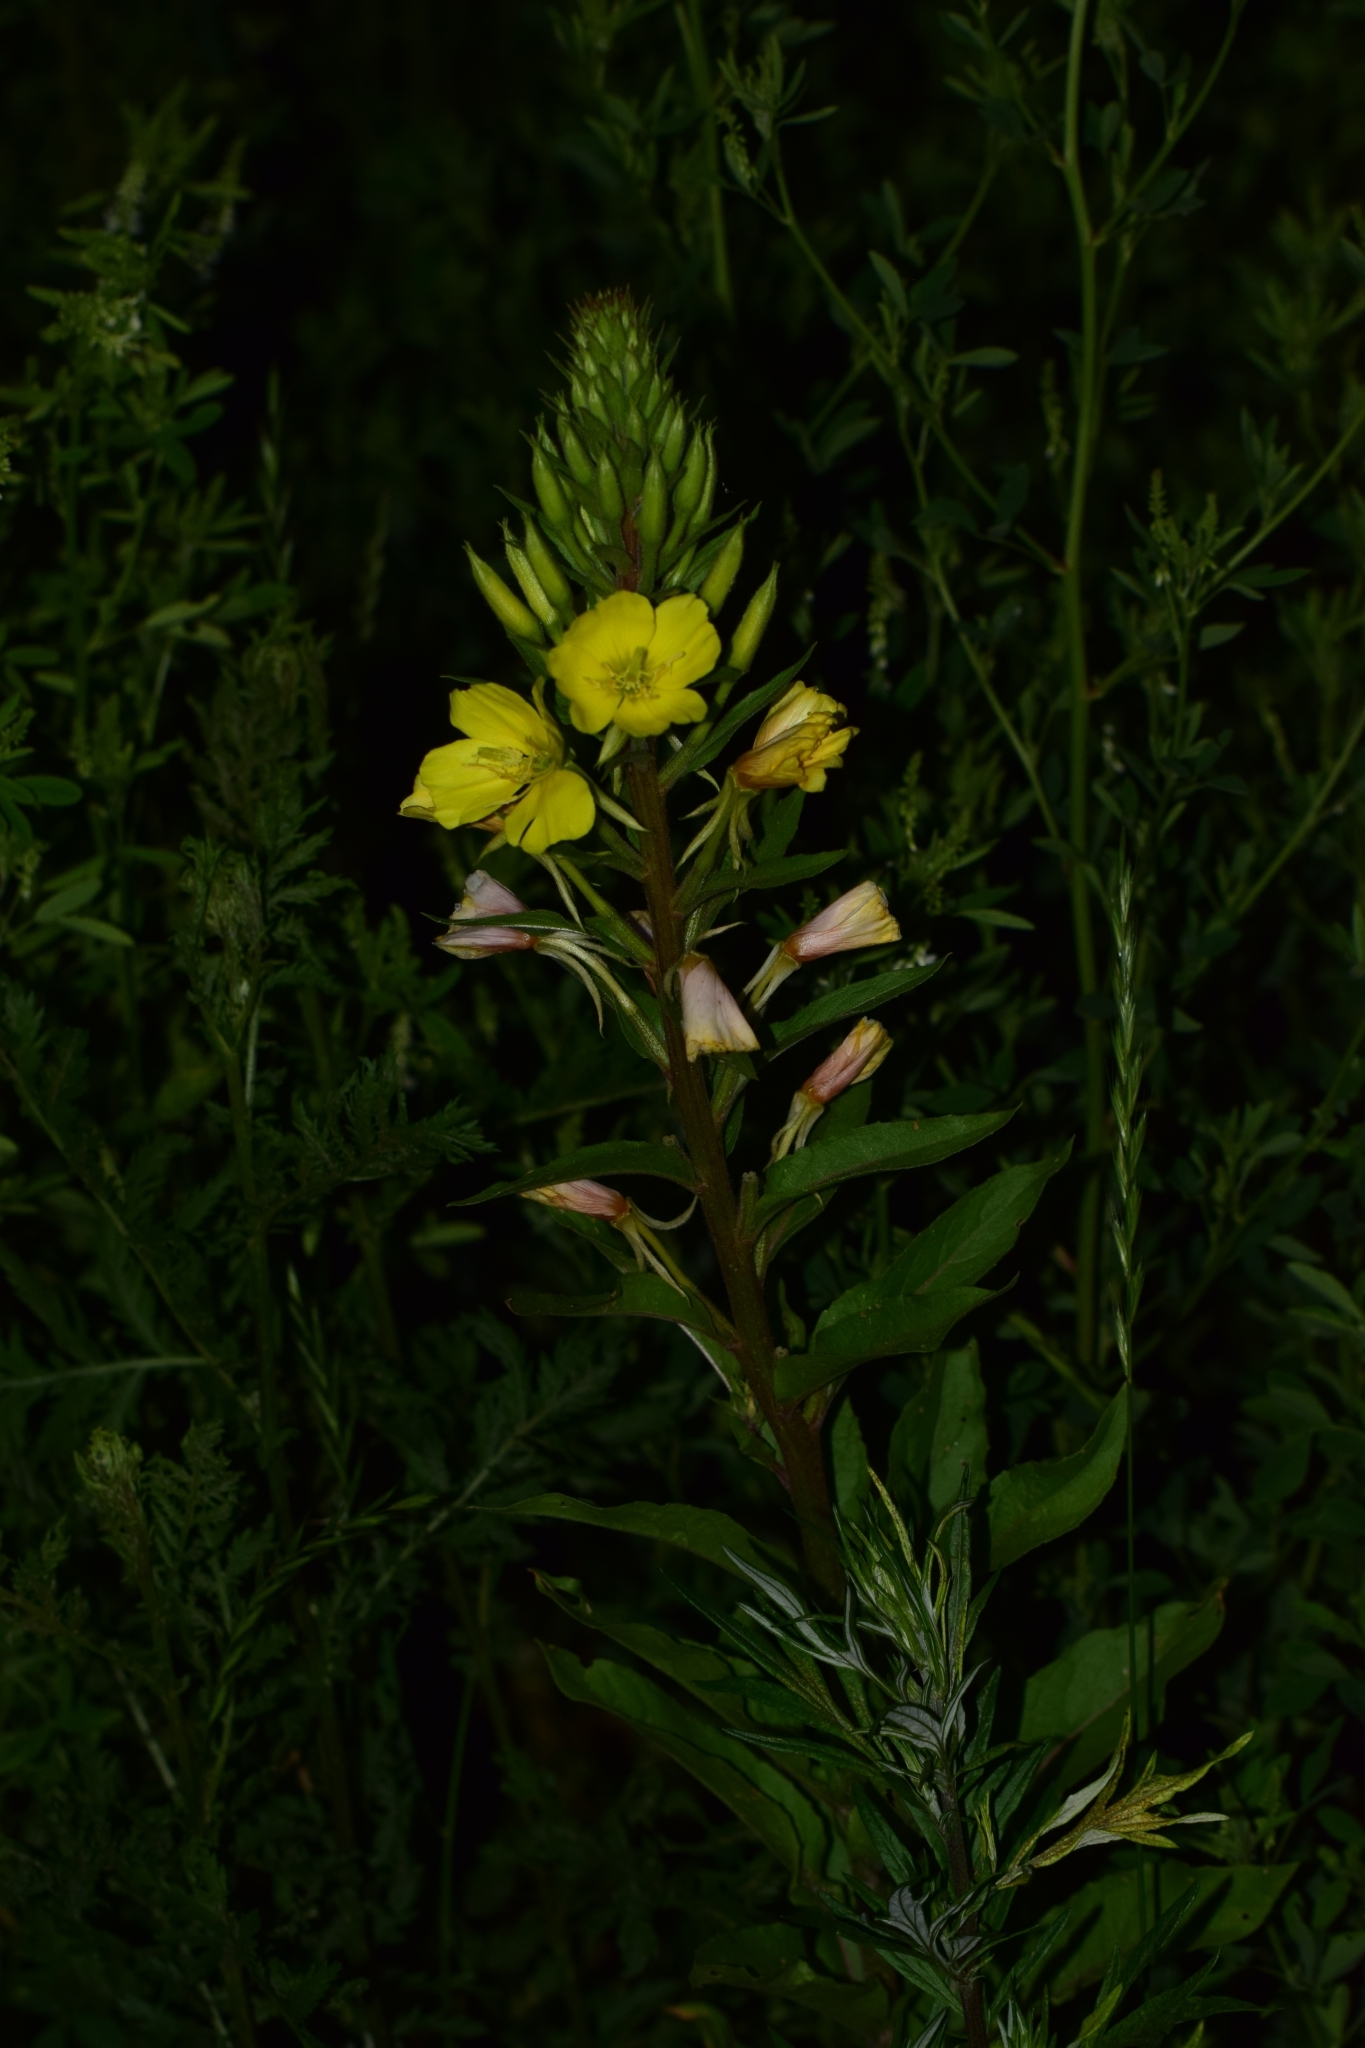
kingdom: Plantae
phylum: Tracheophyta
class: Magnoliopsida
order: Myrtales
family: Onagraceae
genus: Oenothera
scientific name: Oenothera rubricaulis
